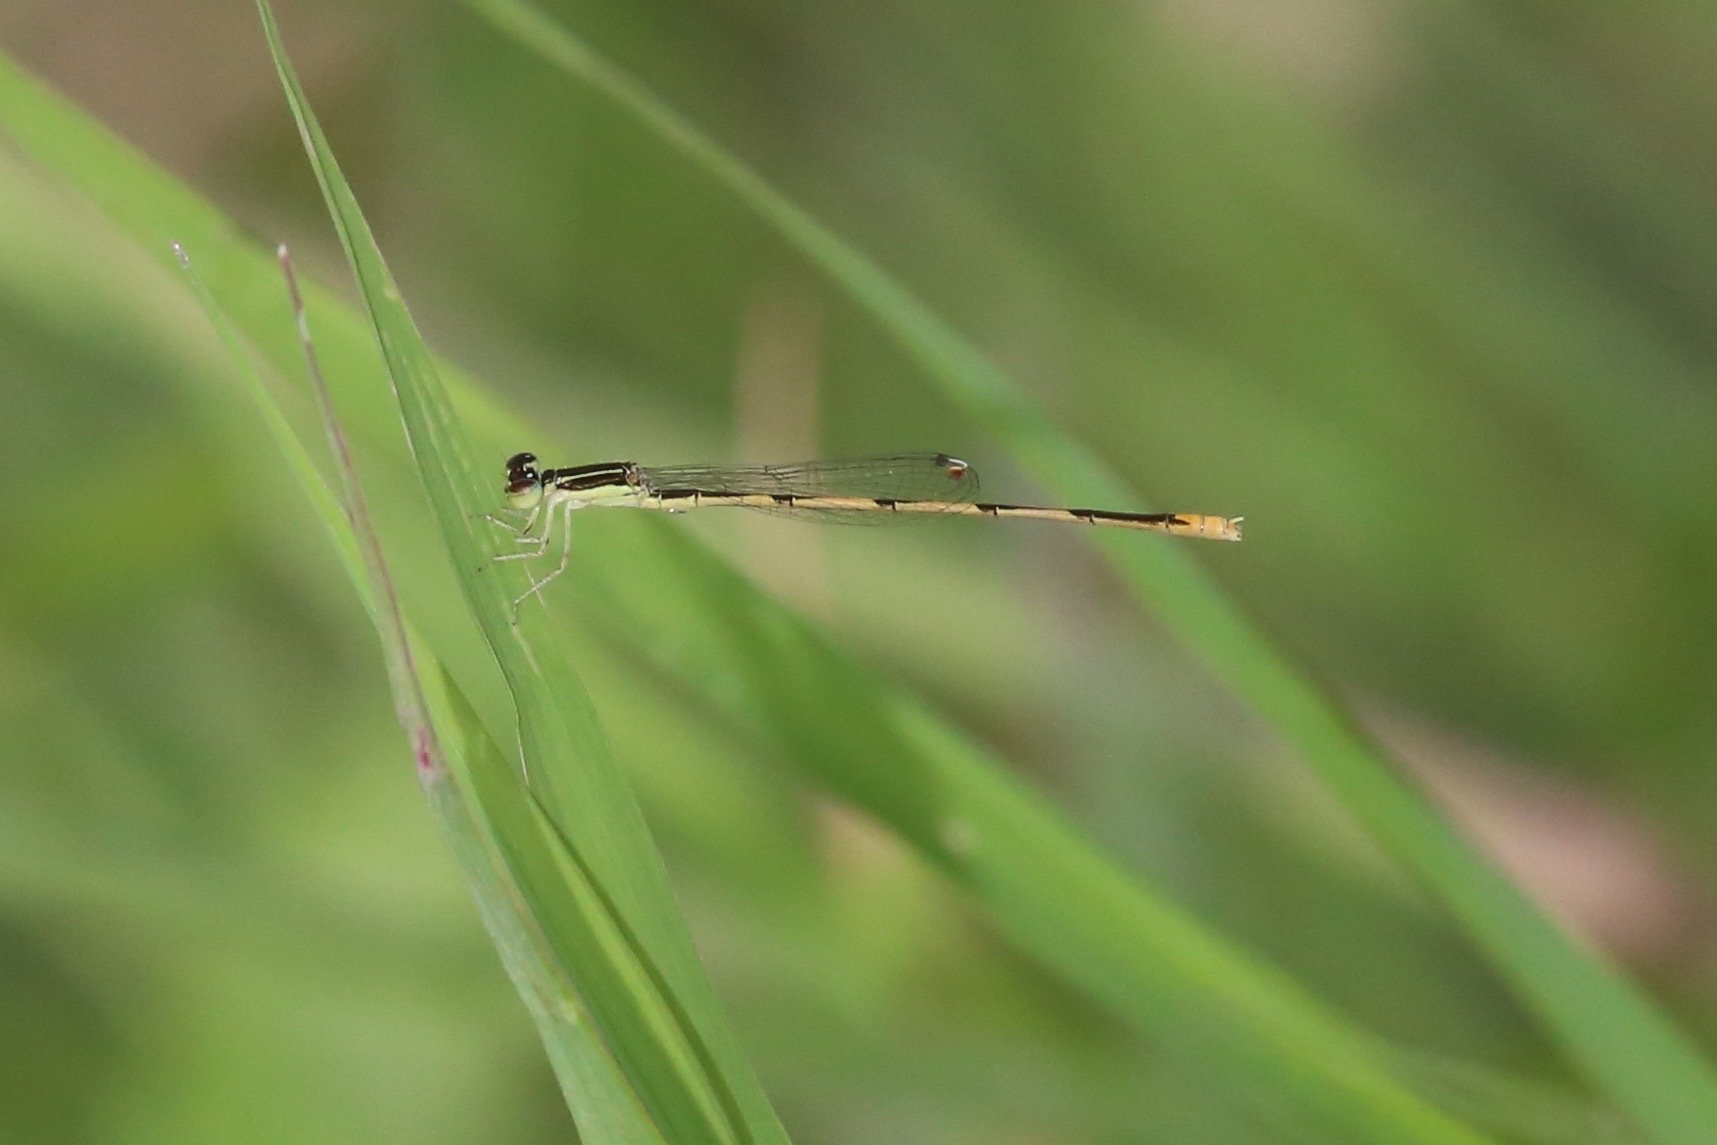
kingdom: Animalia
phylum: Arthropoda
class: Insecta
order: Odonata
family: Coenagrionidae
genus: Ischnura
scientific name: Ischnura hastata
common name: Citrine forktail
